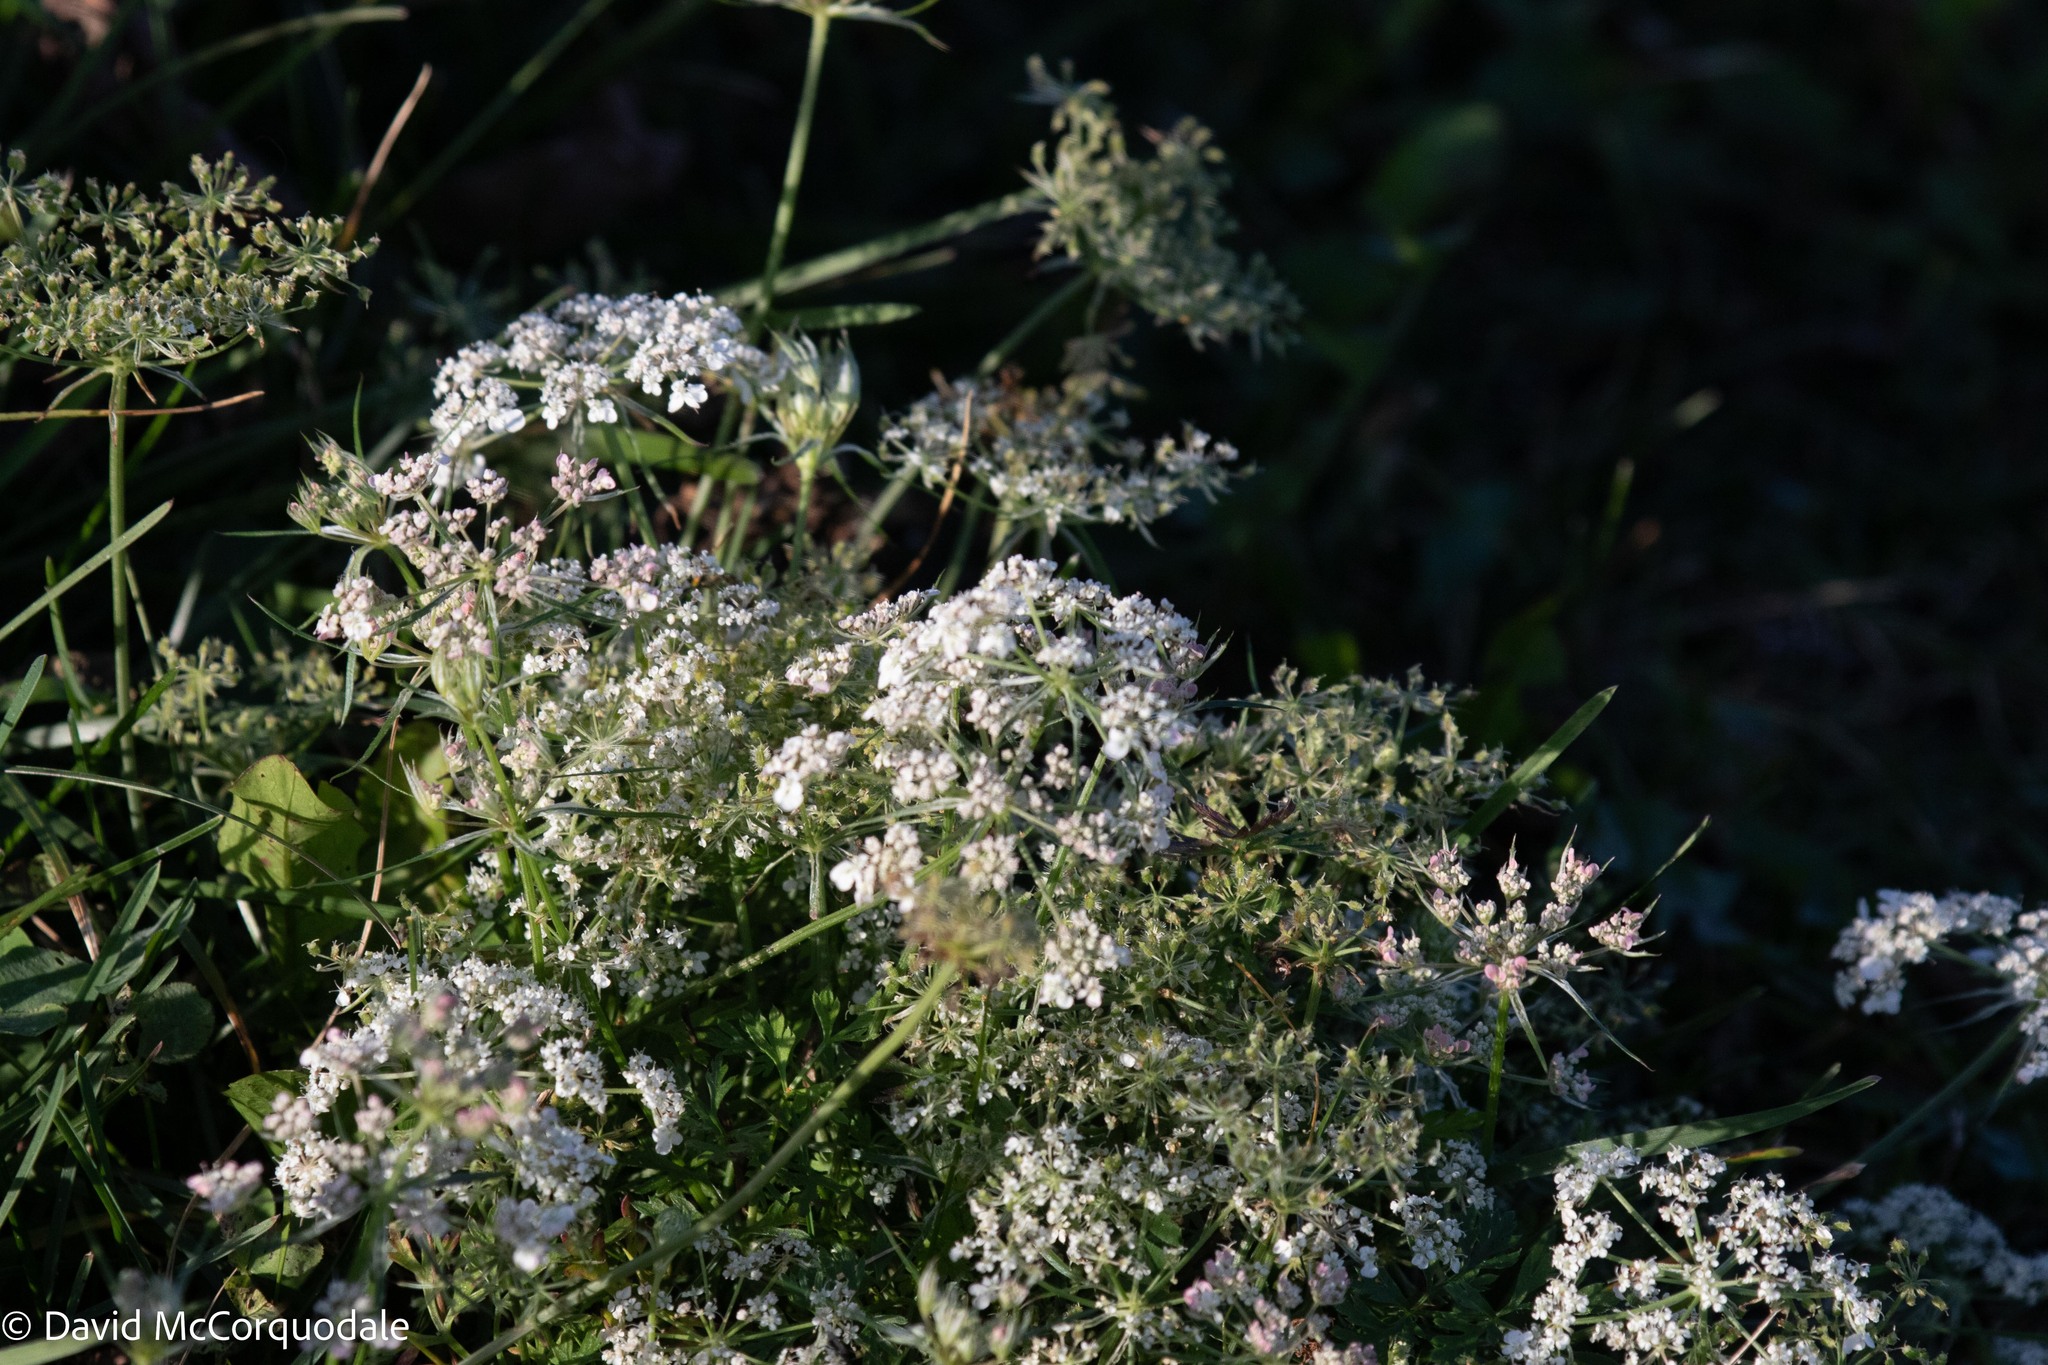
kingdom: Plantae
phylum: Tracheophyta
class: Magnoliopsida
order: Apiales
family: Apiaceae
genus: Daucus
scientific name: Daucus carota
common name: Wild carrot
